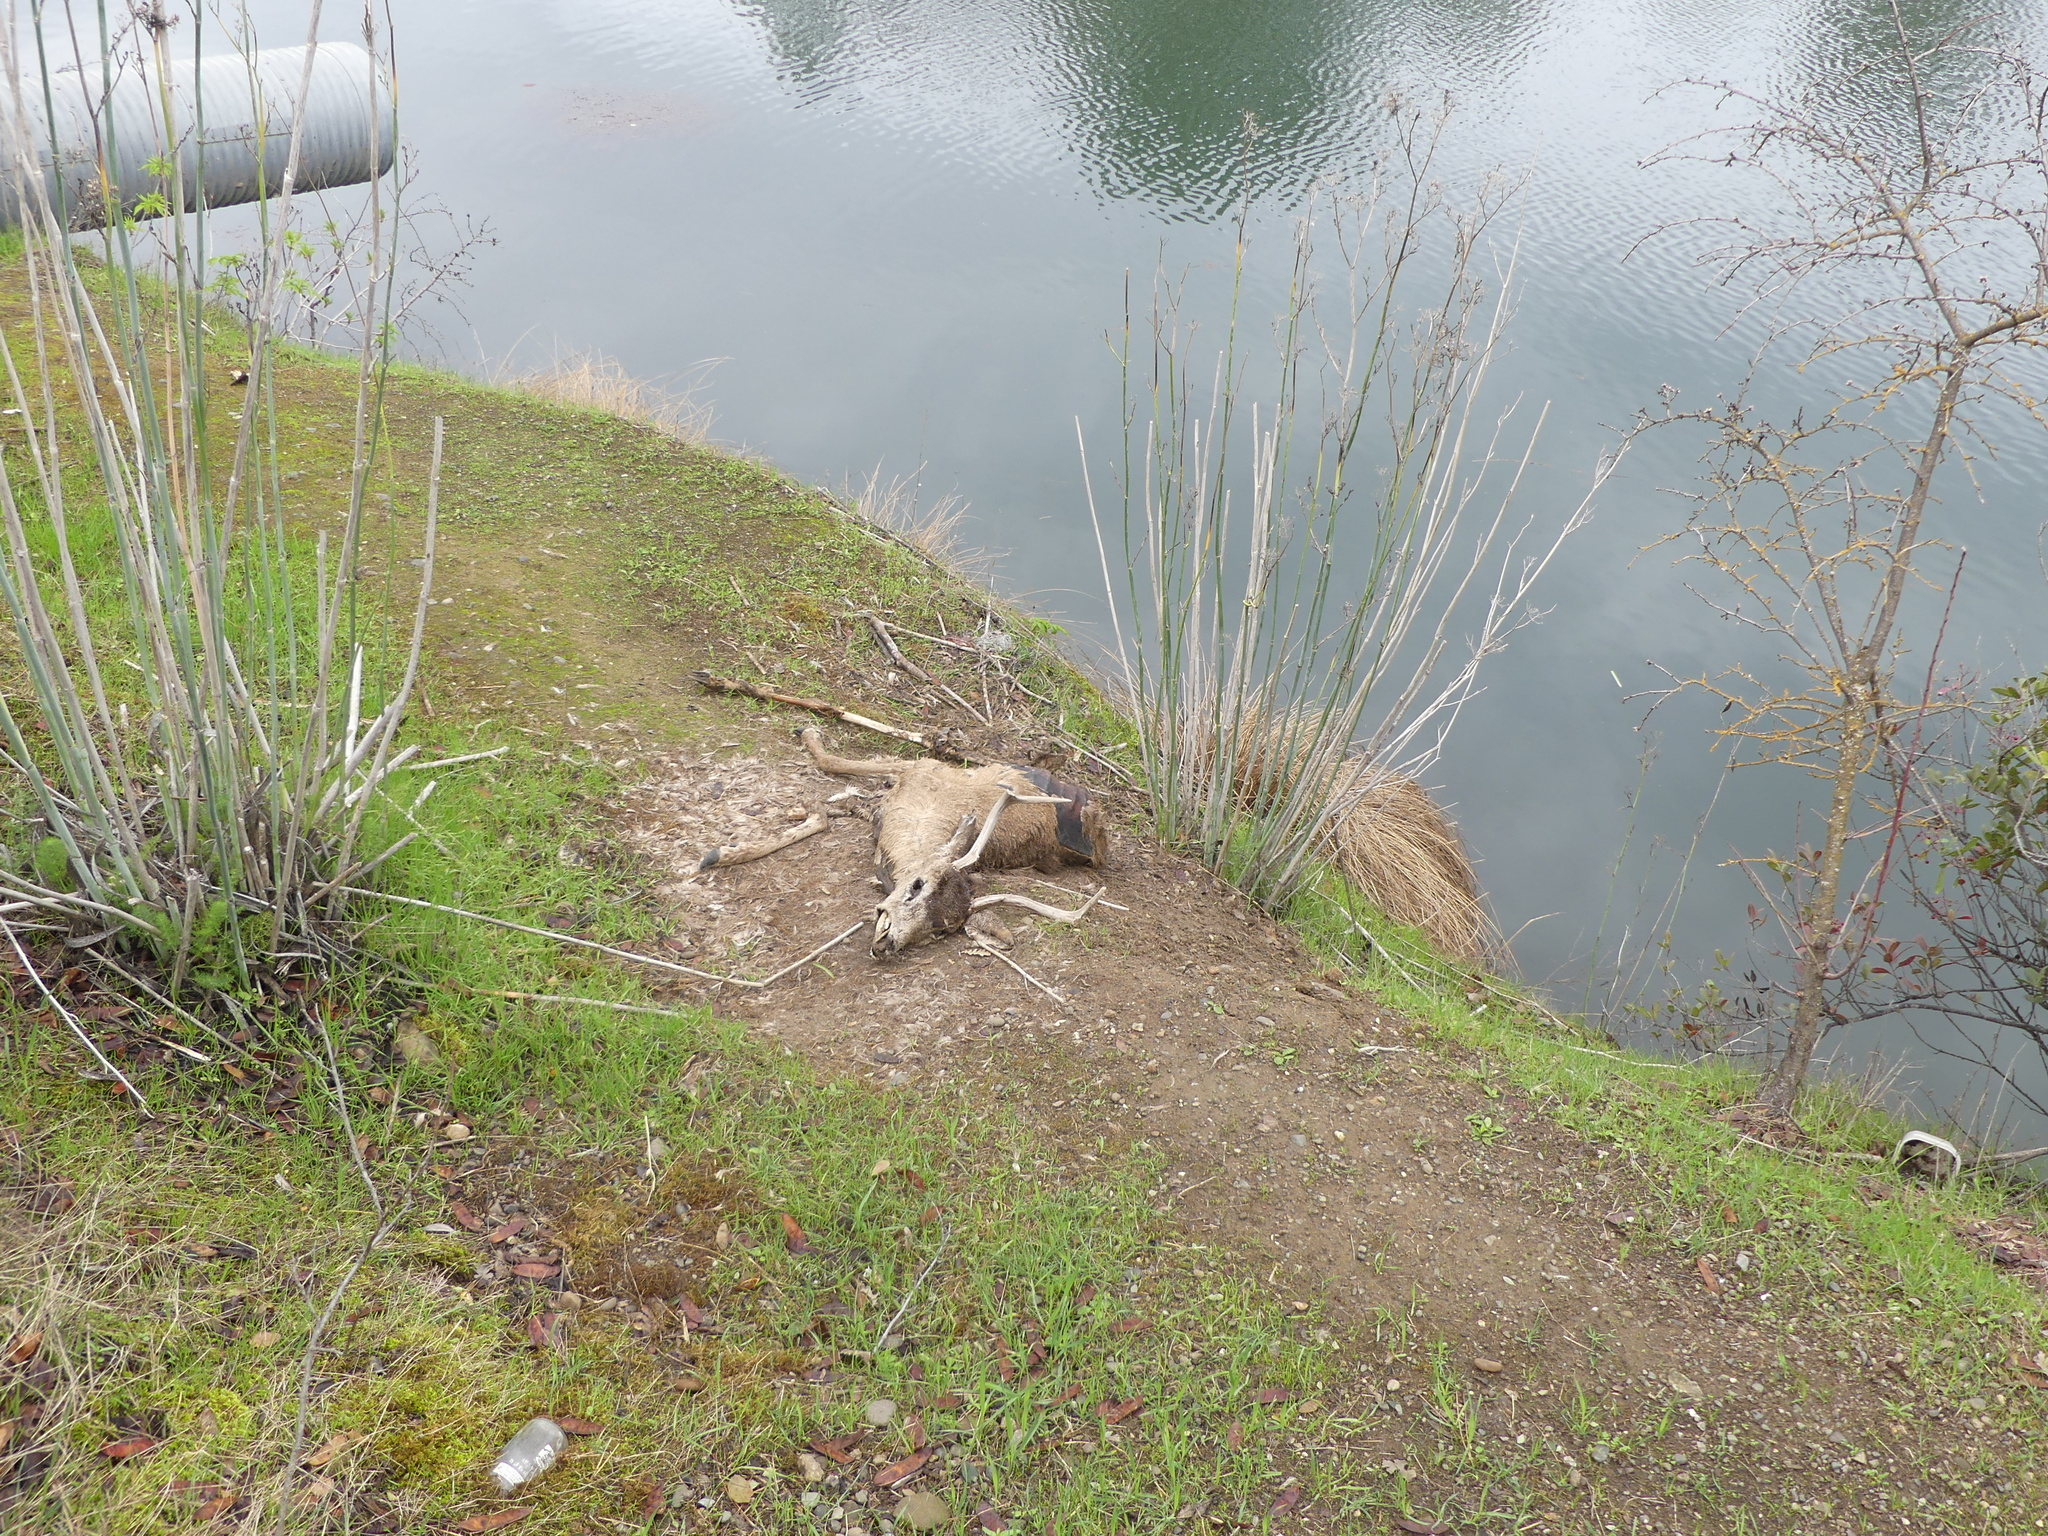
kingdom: Animalia
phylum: Chordata
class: Mammalia
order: Artiodactyla
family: Cervidae
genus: Odocoileus
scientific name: Odocoileus hemionus
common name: Mule deer
